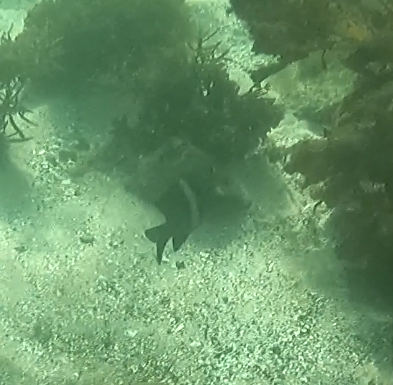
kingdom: Animalia
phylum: Chordata
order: Perciformes
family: Pomacentridae
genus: Parma
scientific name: Parma unifasciata
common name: Girdled parma
